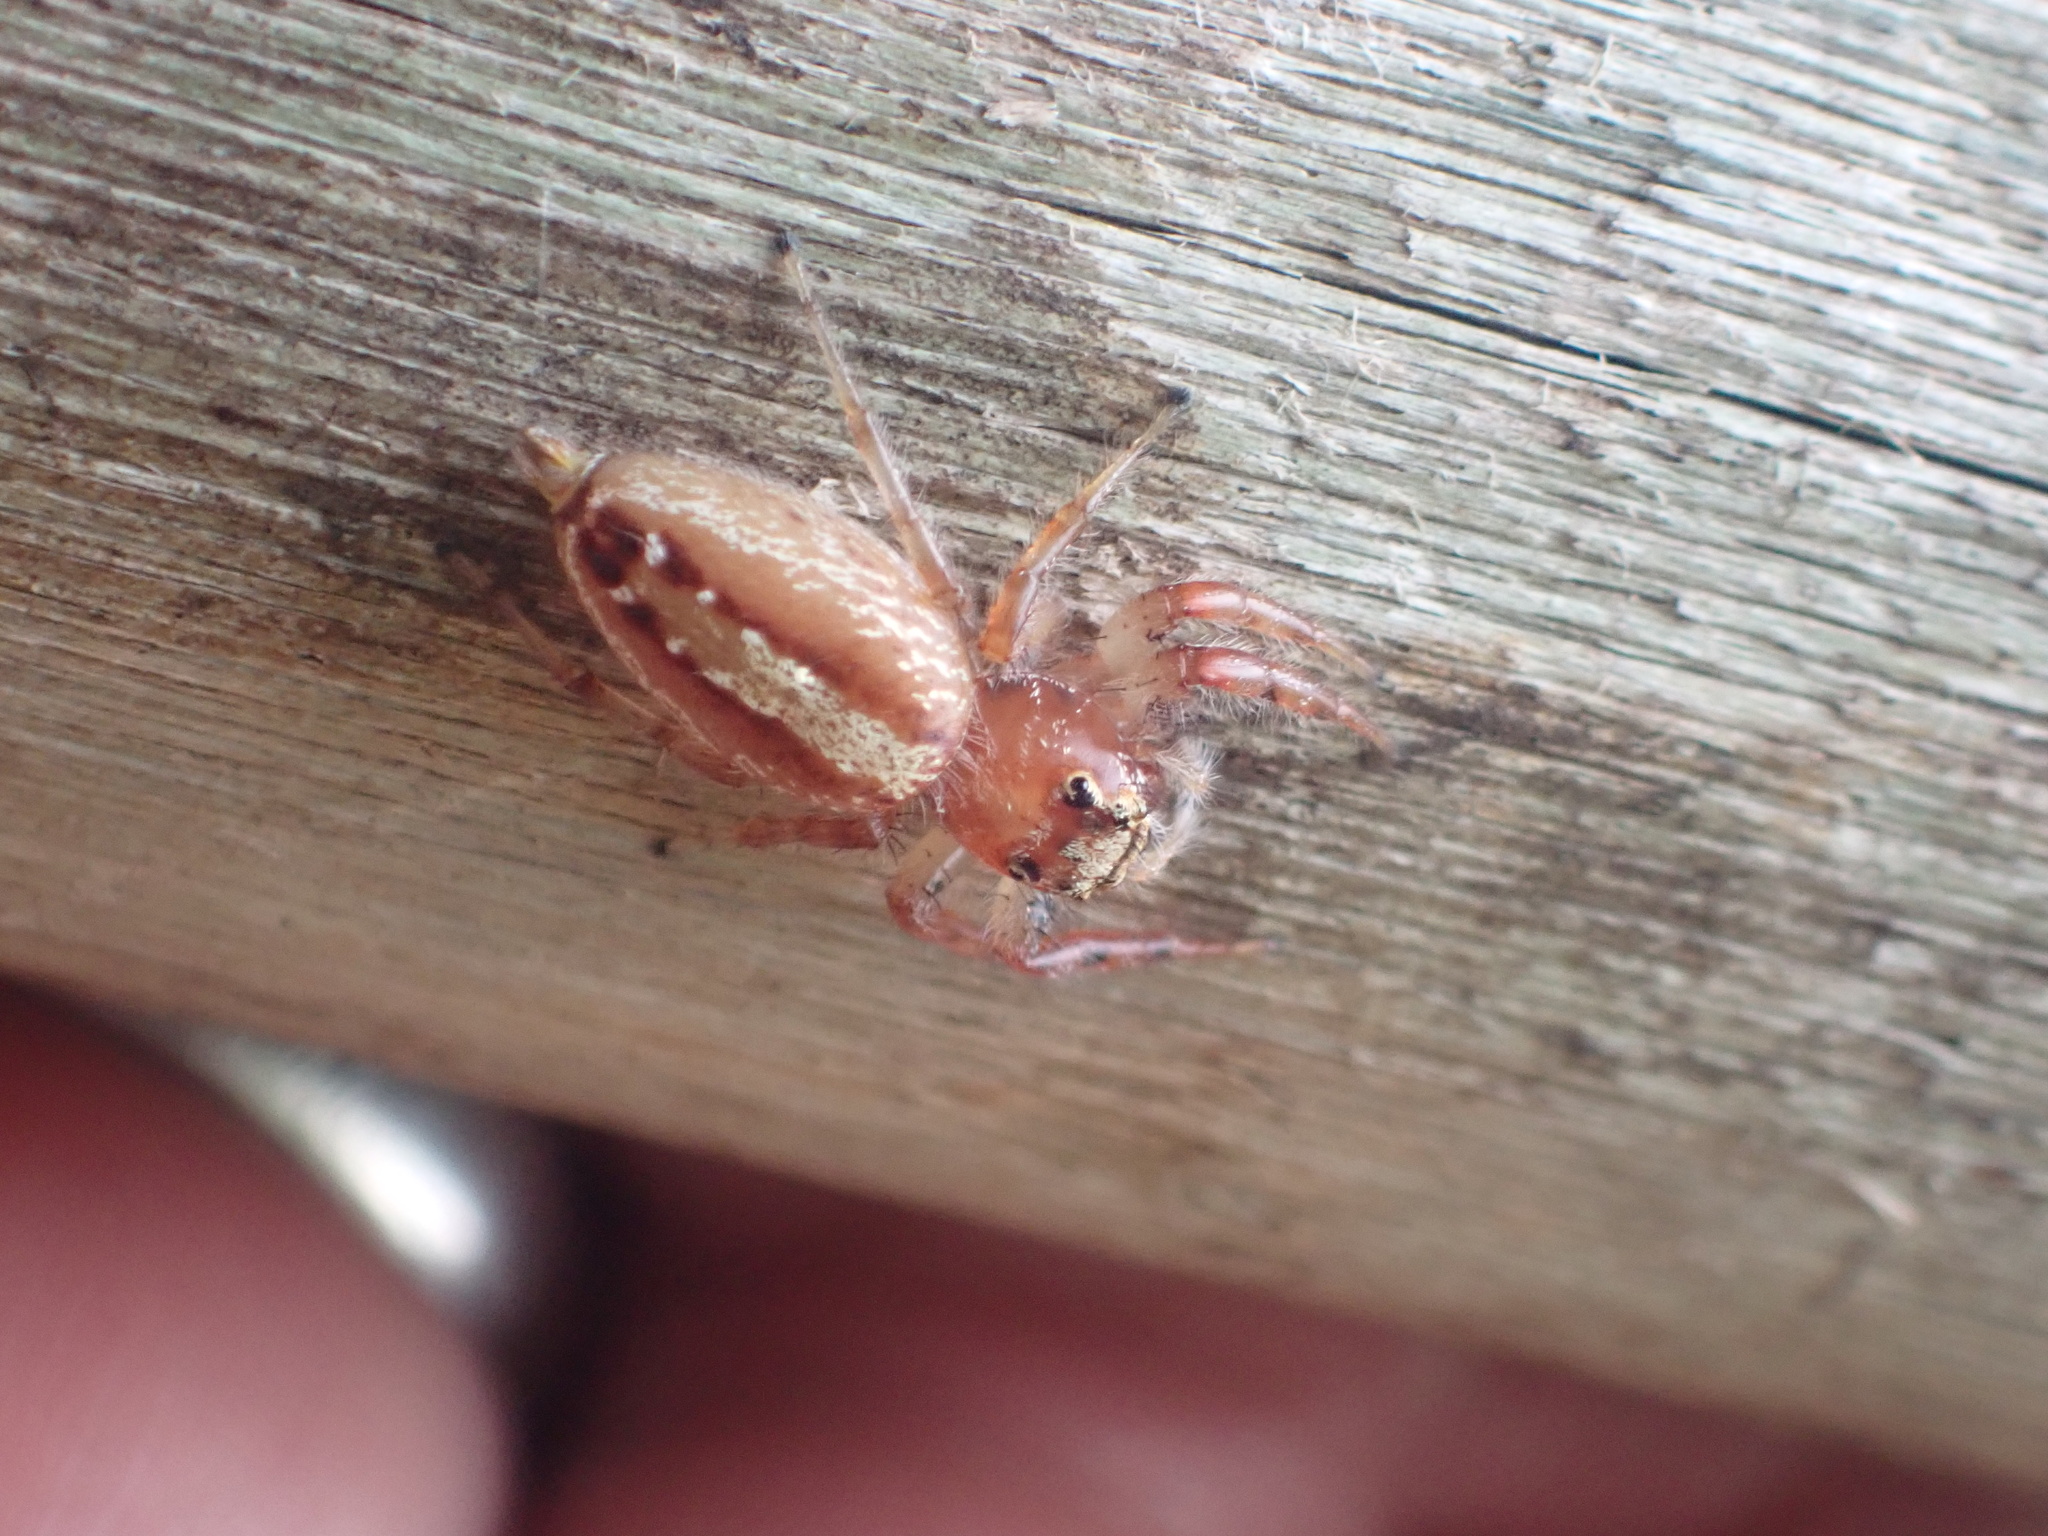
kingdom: Animalia
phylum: Arthropoda
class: Arachnida
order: Araneae
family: Salticidae
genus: Thyene
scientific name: Thyene ogdeni
